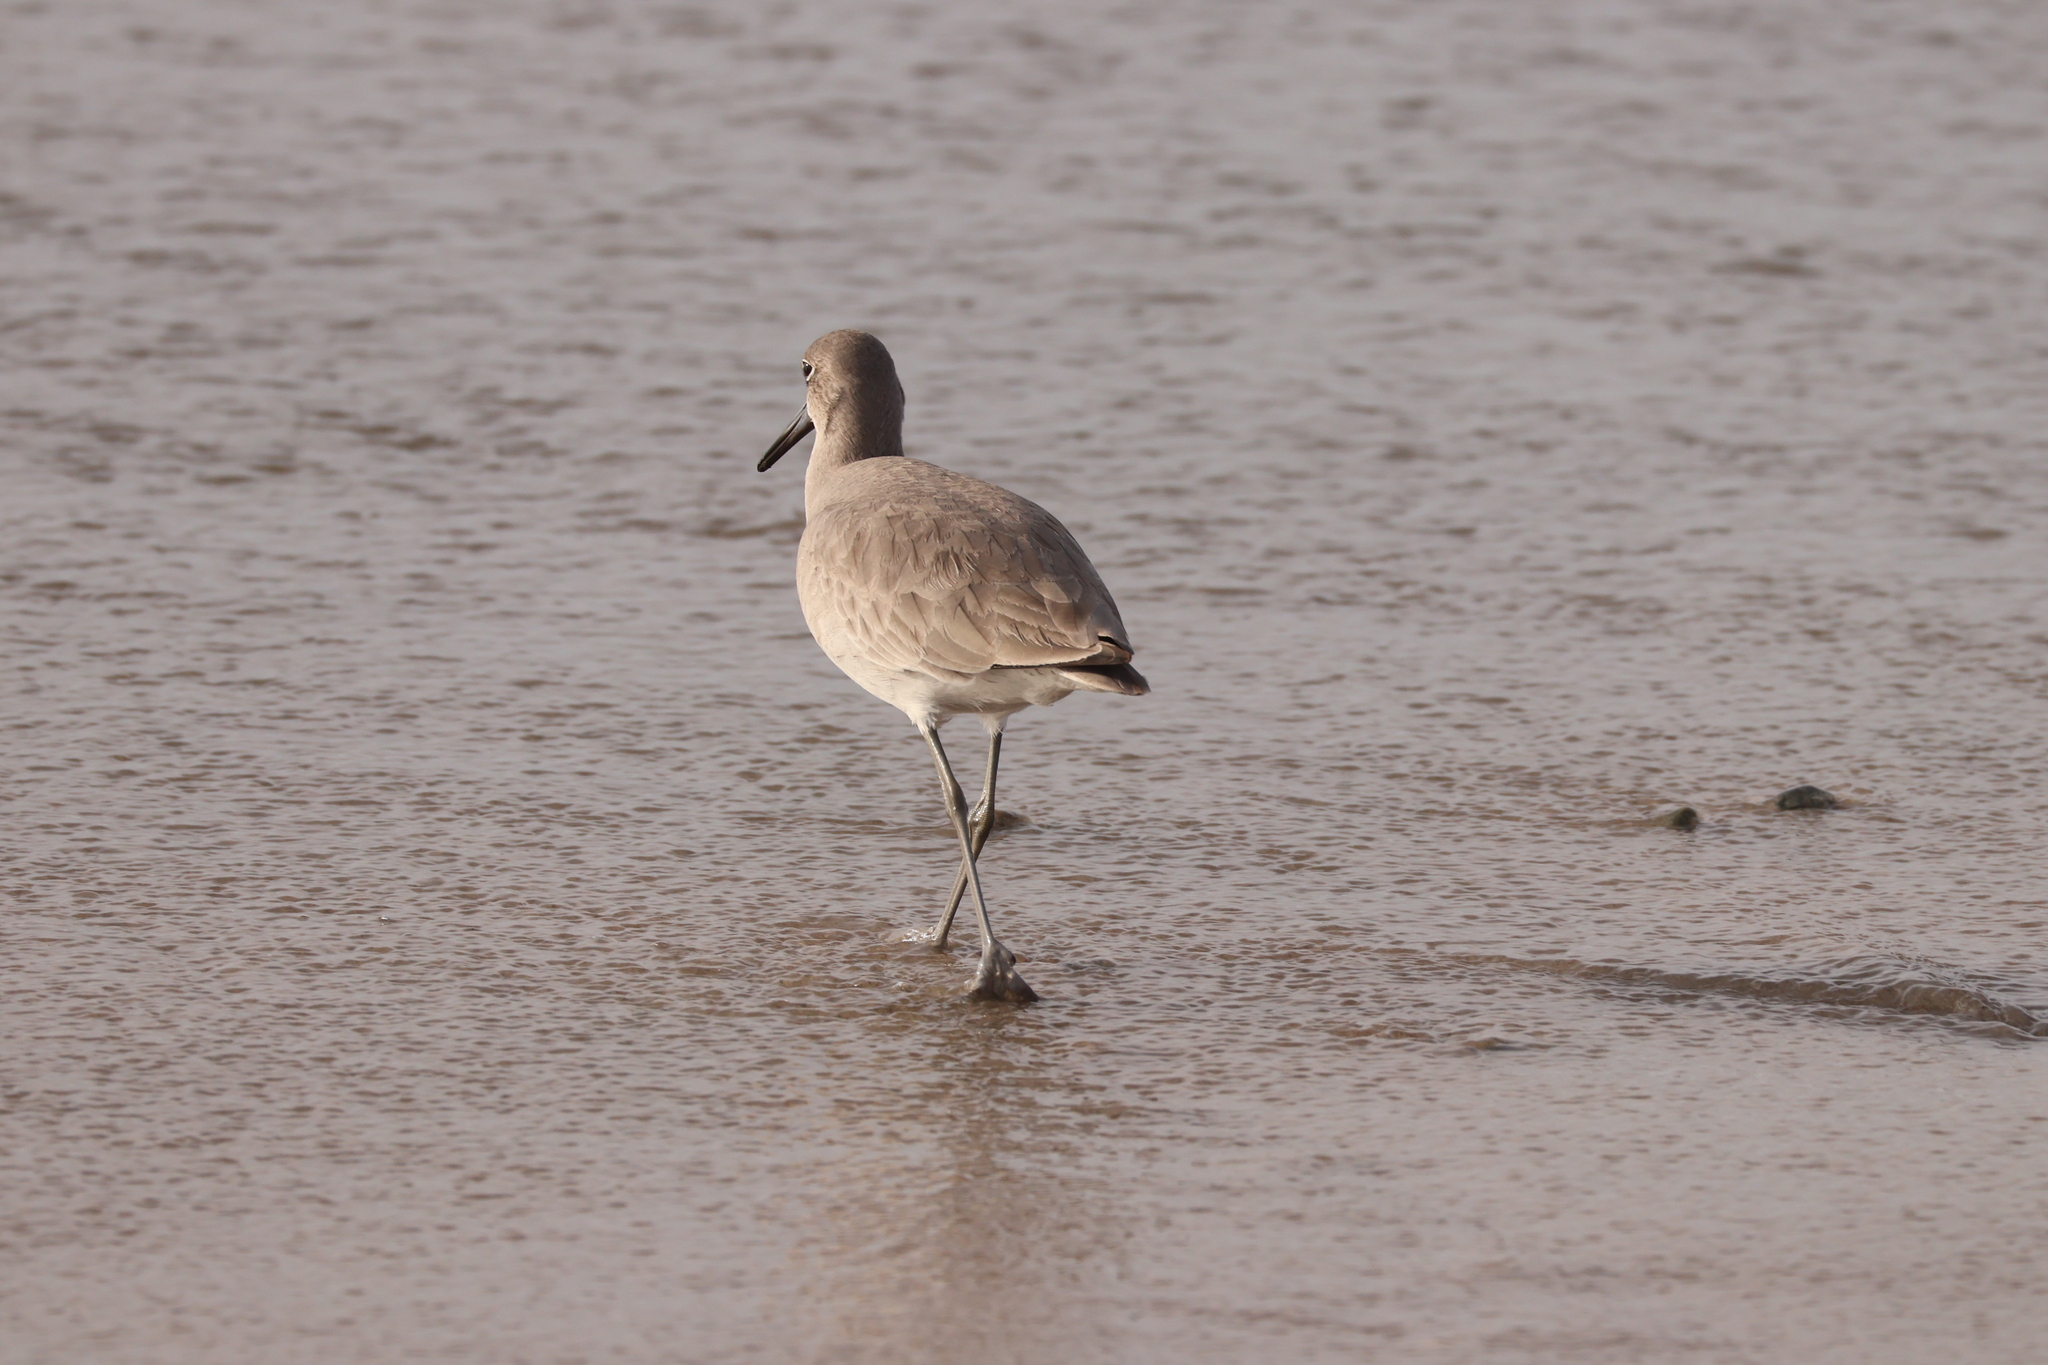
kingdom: Animalia
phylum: Chordata
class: Aves
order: Charadriiformes
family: Scolopacidae
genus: Tringa
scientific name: Tringa semipalmata
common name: Willet
